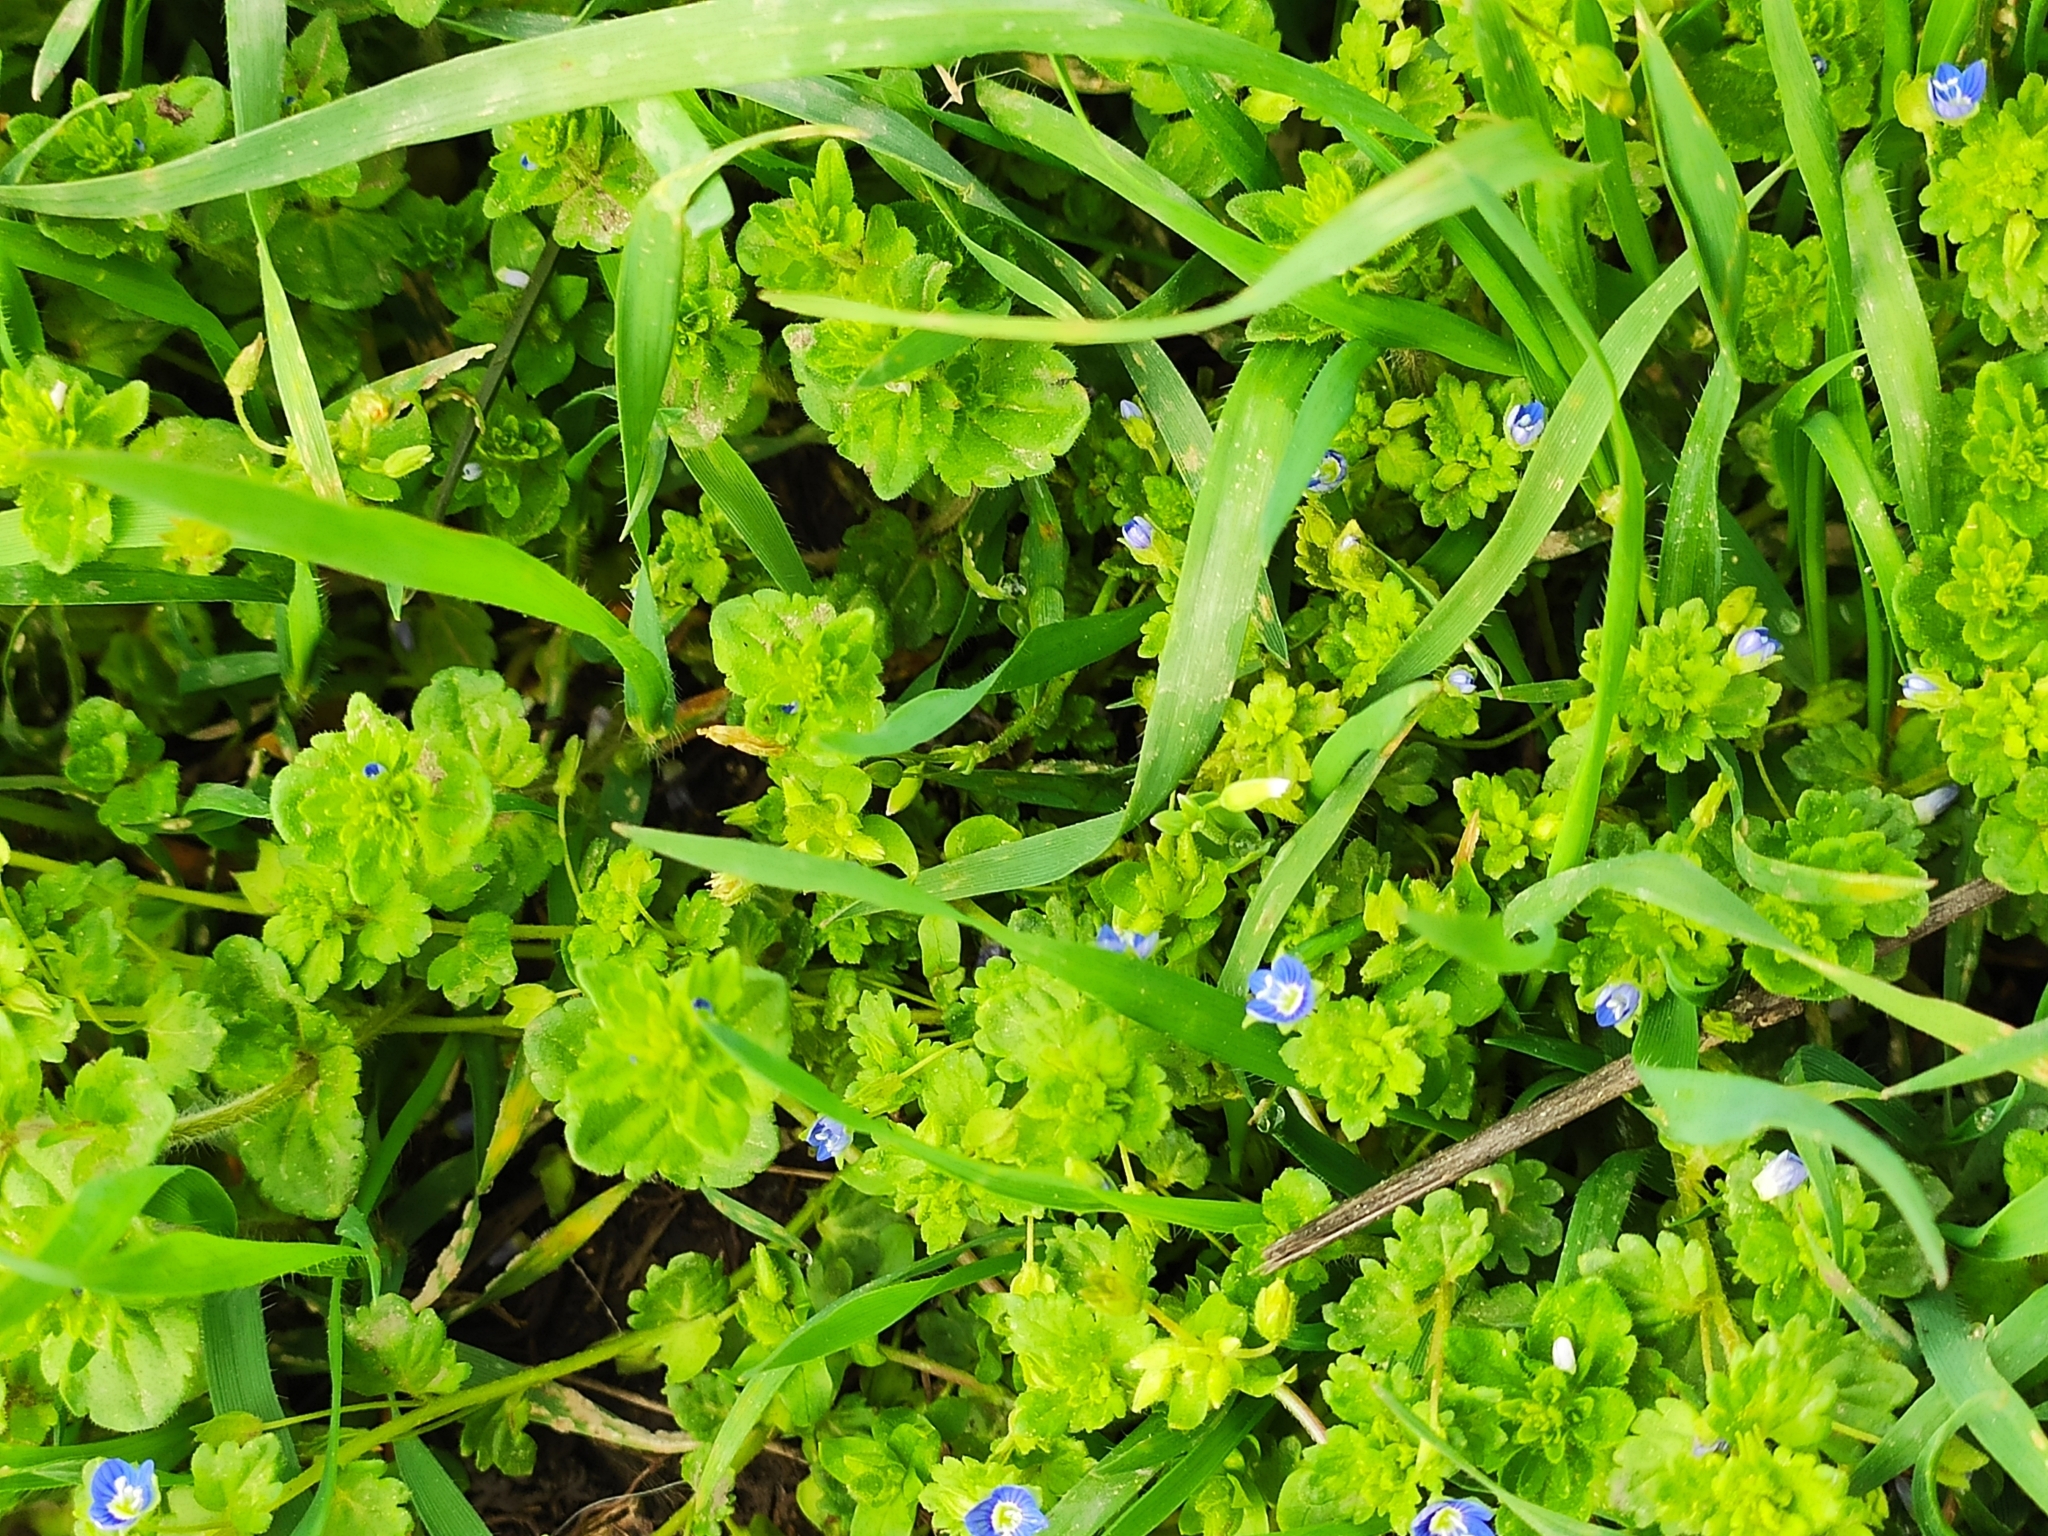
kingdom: Plantae
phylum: Tracheophyta
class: Magnoliopsida
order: Lamiales
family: Plantaginaceae
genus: Veronica
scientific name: Veronica polita
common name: Grey field-speedwell
